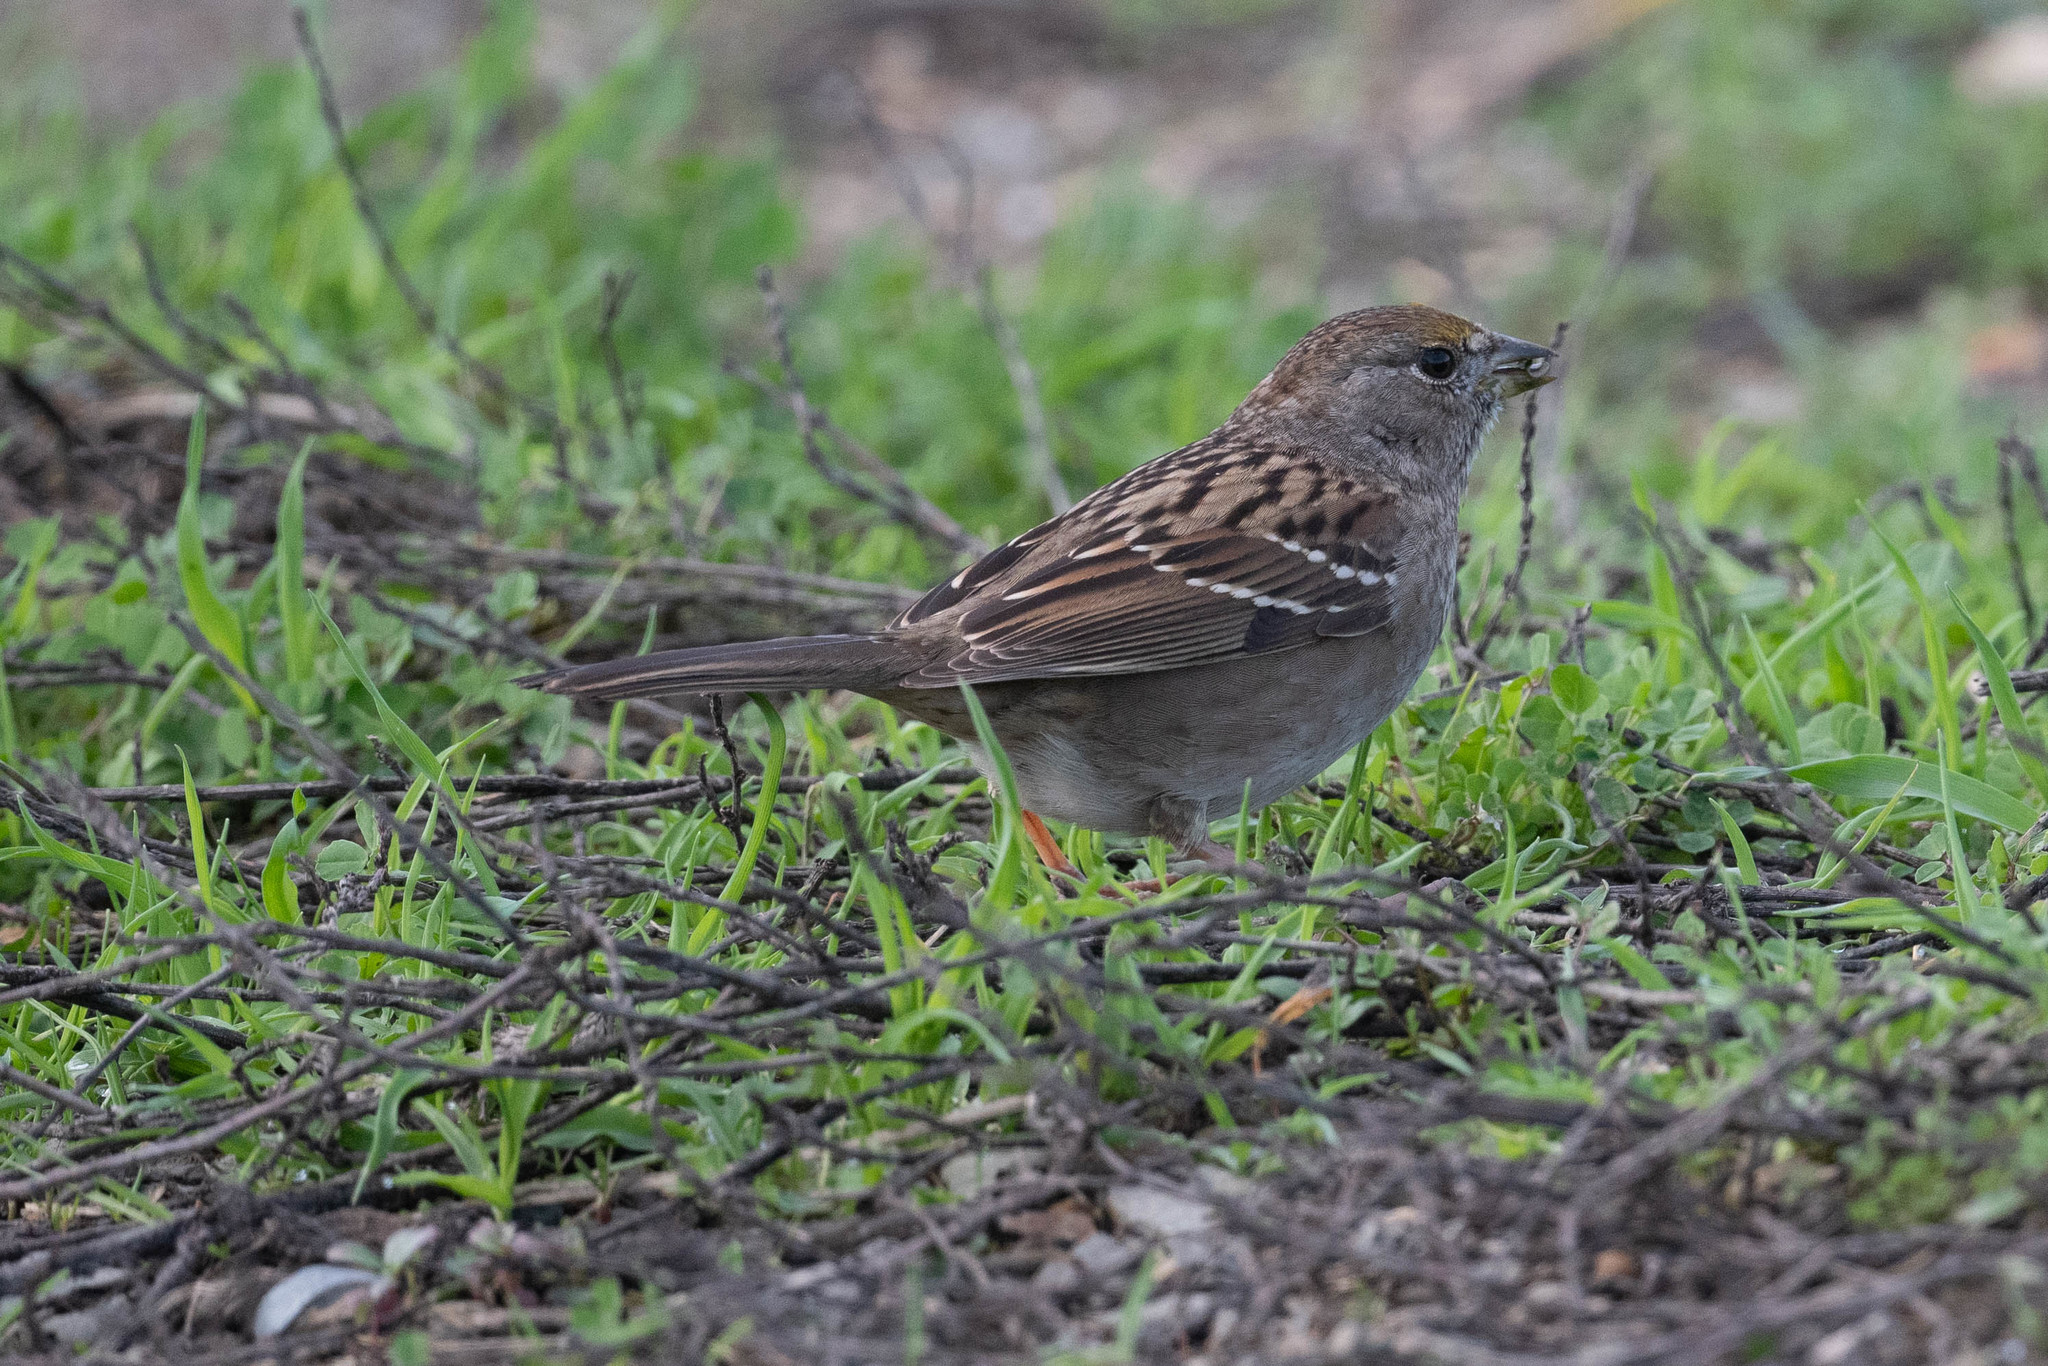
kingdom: Animalia
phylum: Chordata
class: Aves
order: Passeriformes
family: Passerellidae
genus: Zonotrichia
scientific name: Zonotrichia atricapilla
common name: Golden-crowned sparrow
